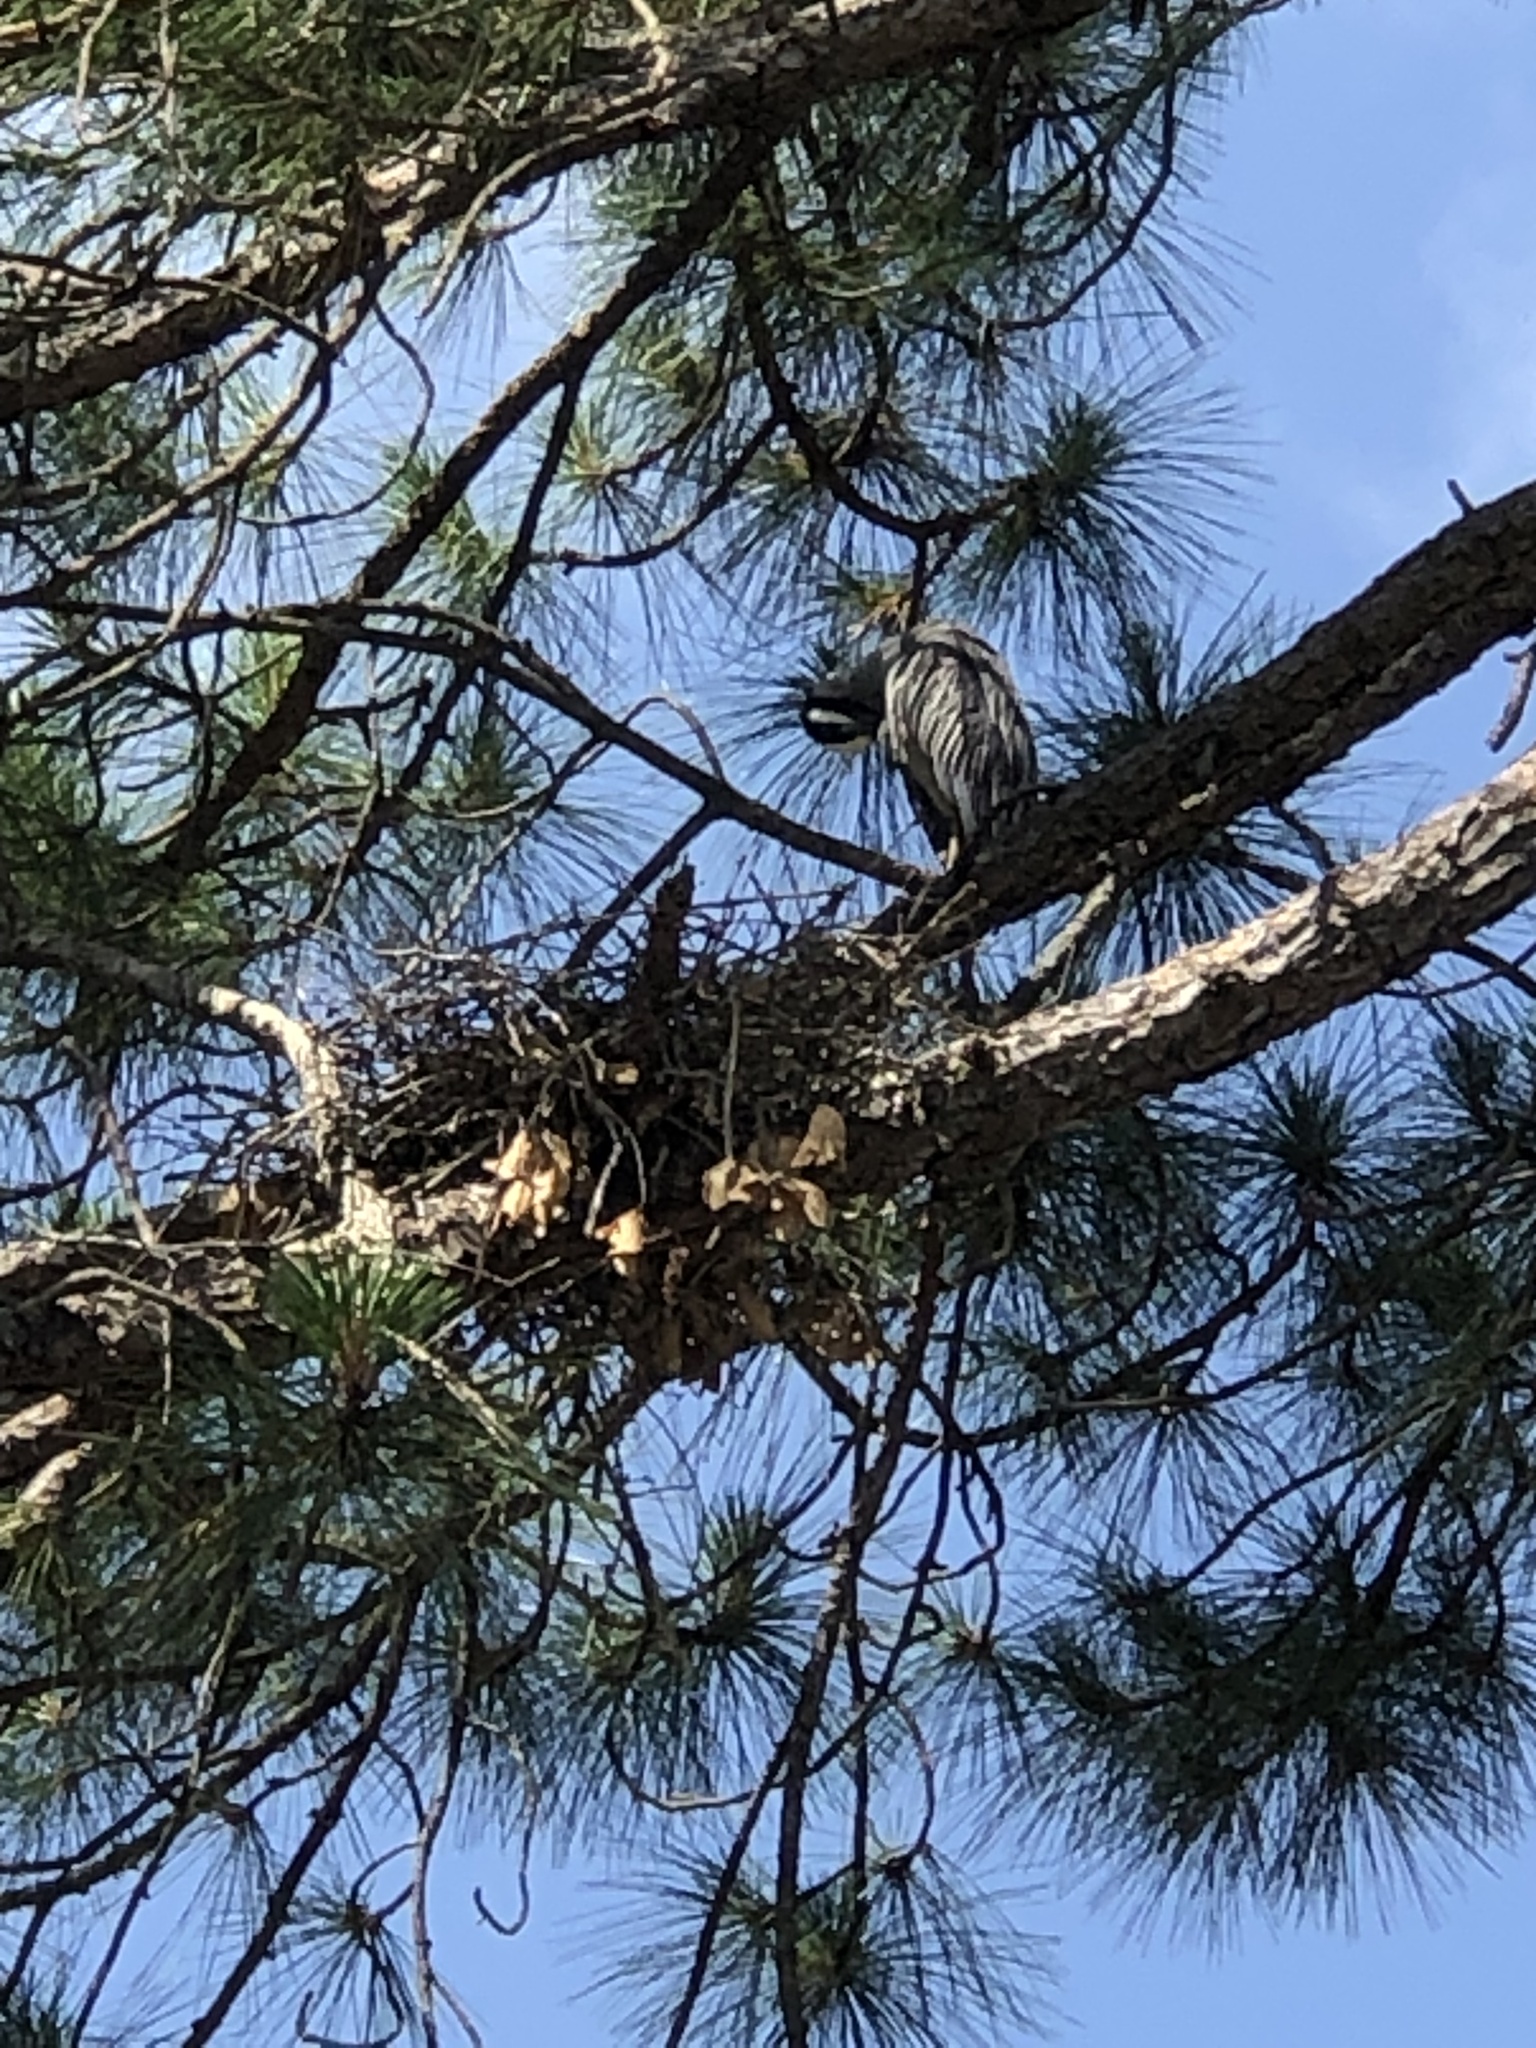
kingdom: Animalia
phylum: Chordata
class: Aves
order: Pelecaniformes
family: Ardeidae
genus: Nyctanassa
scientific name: Nyctanassa violacea
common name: Yellow-crowned night heron
